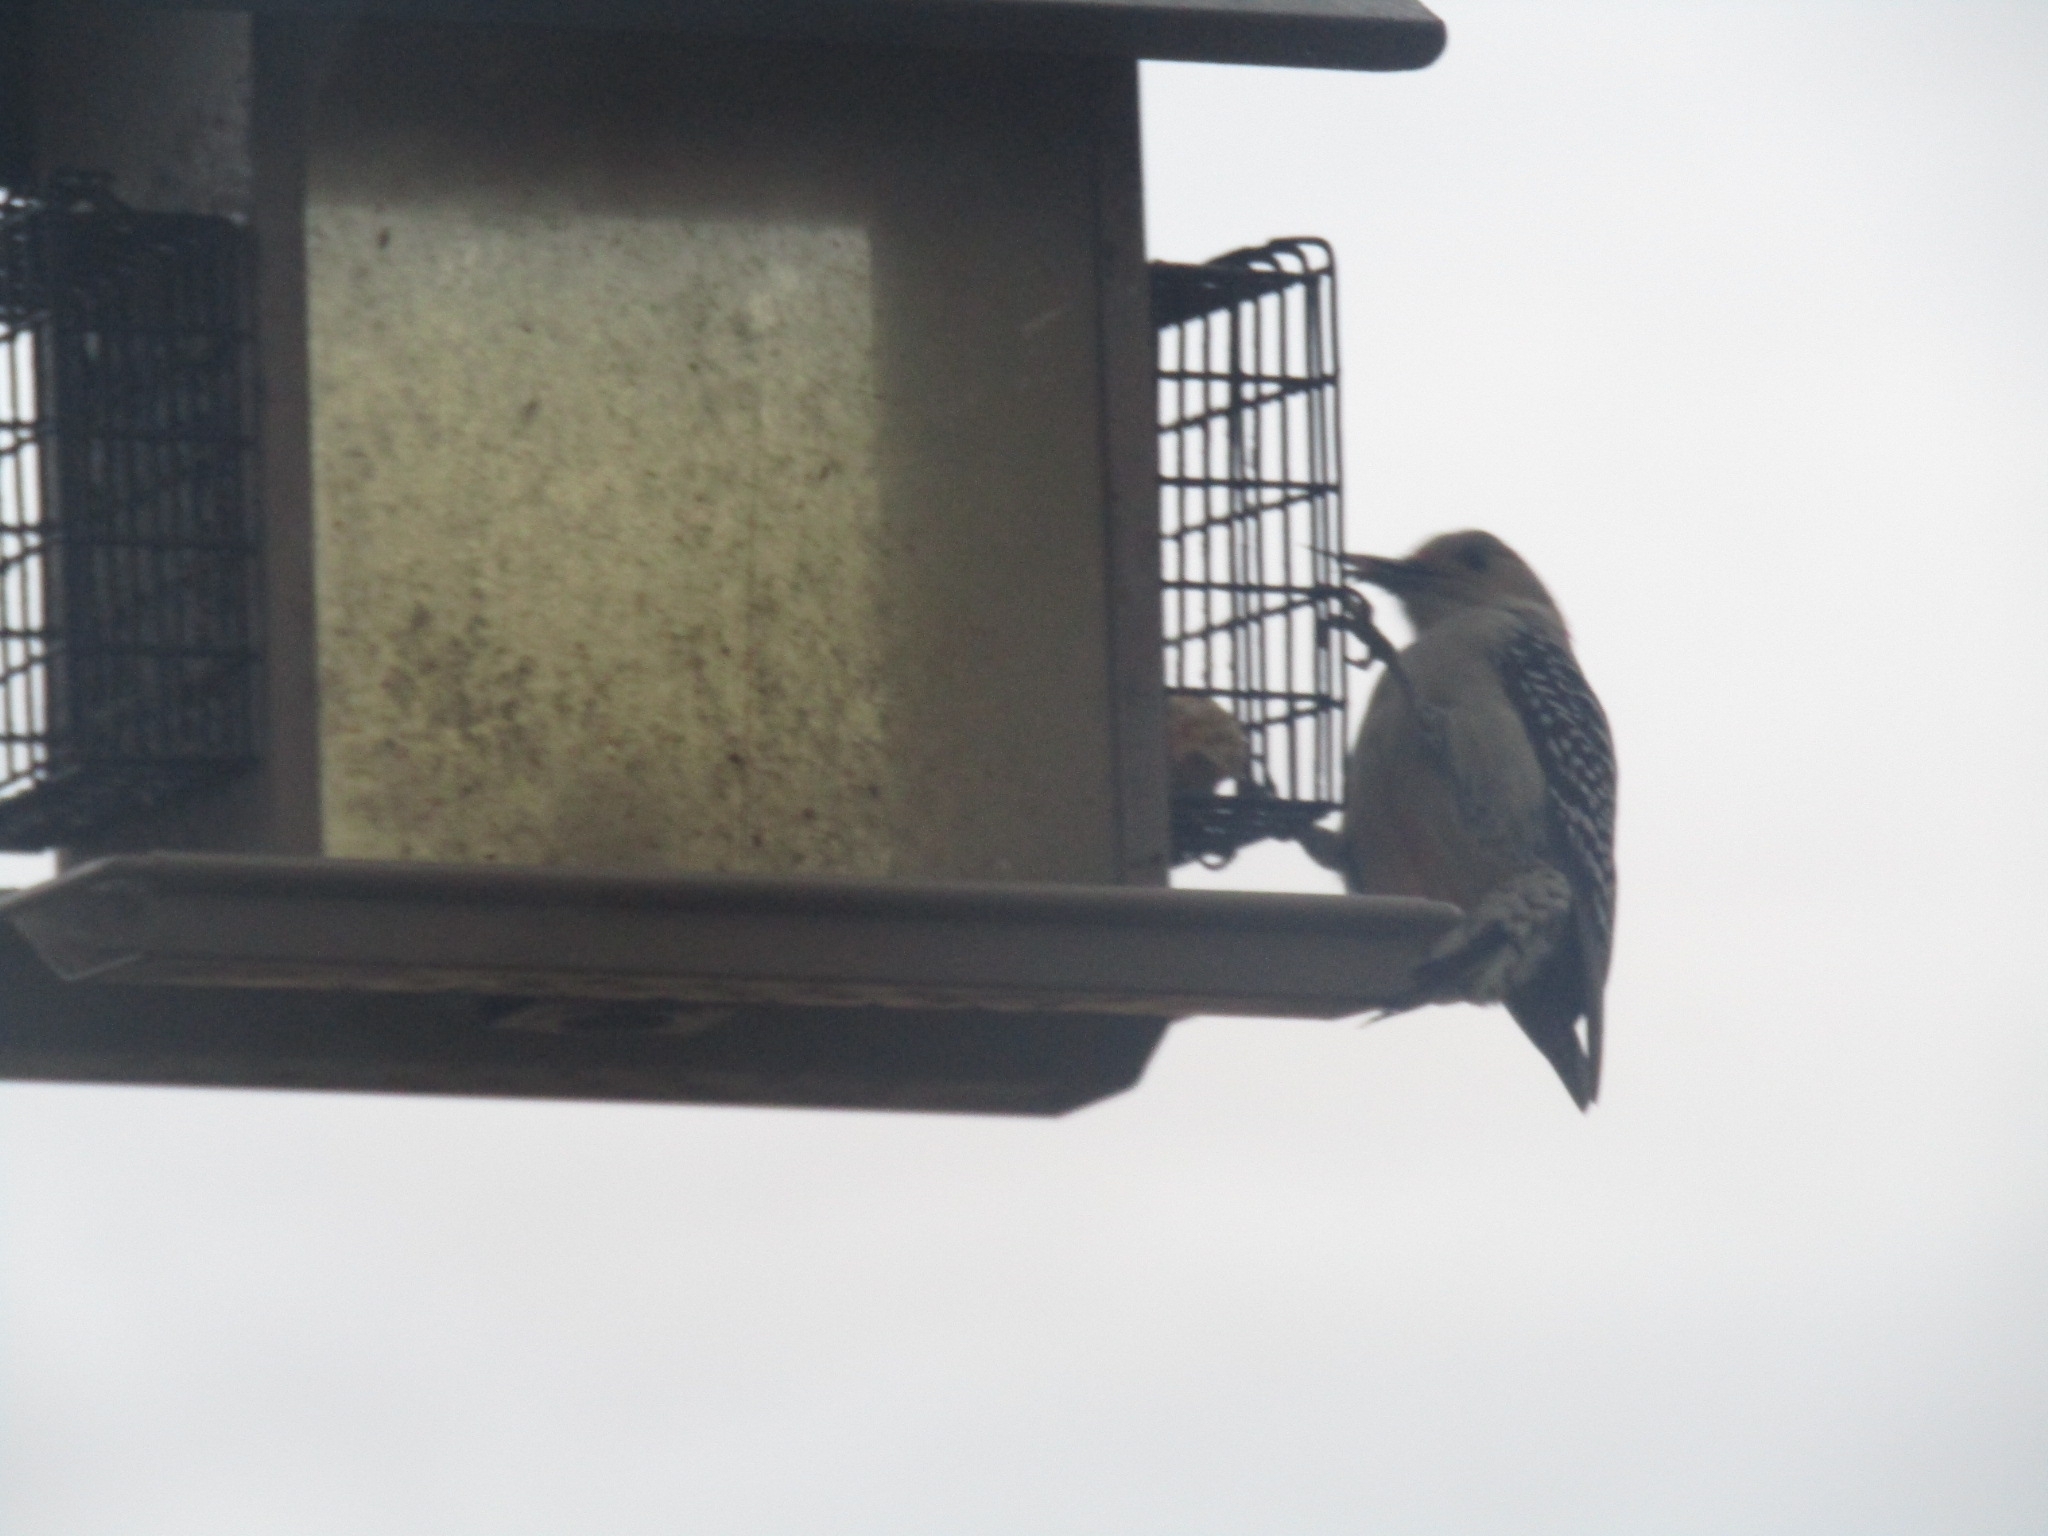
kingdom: Animalia
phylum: Chordata
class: Aves
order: Piciformes
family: Picidae
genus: Melanerpes
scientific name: Melanerpes carolinus
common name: Red-bellied woodpecker
